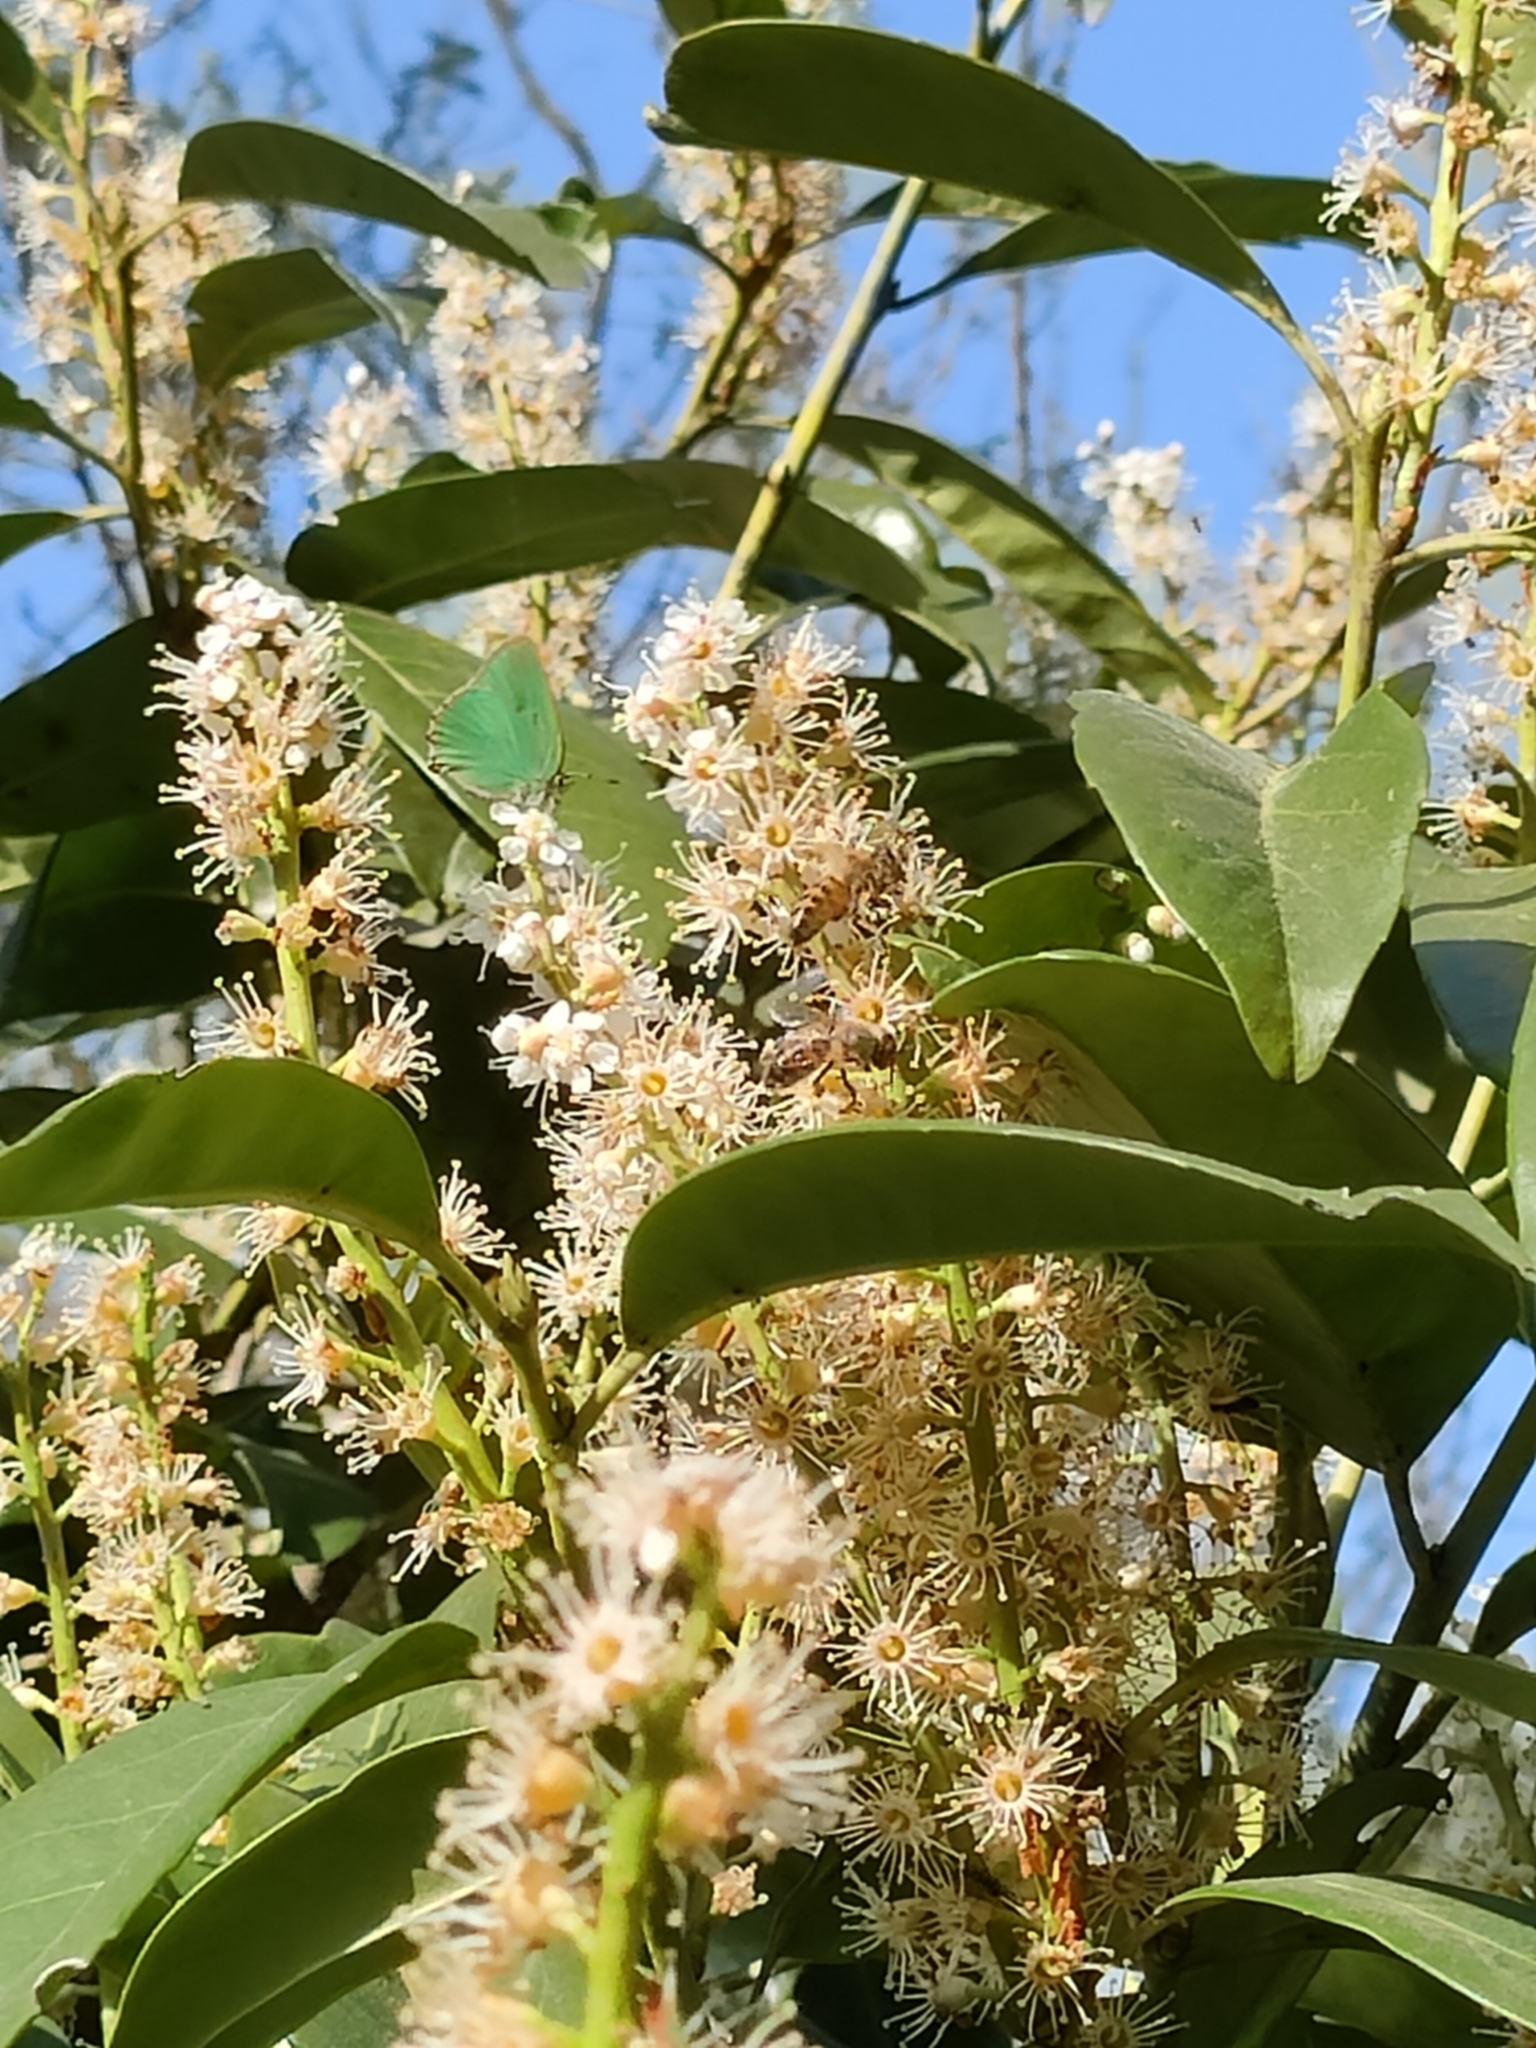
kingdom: Animalia
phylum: Arthropoda
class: Insecta
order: Lepidoptera
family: Lycaenidae
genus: Callophrys
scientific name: Callophrys rubi
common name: Green hairstreak
